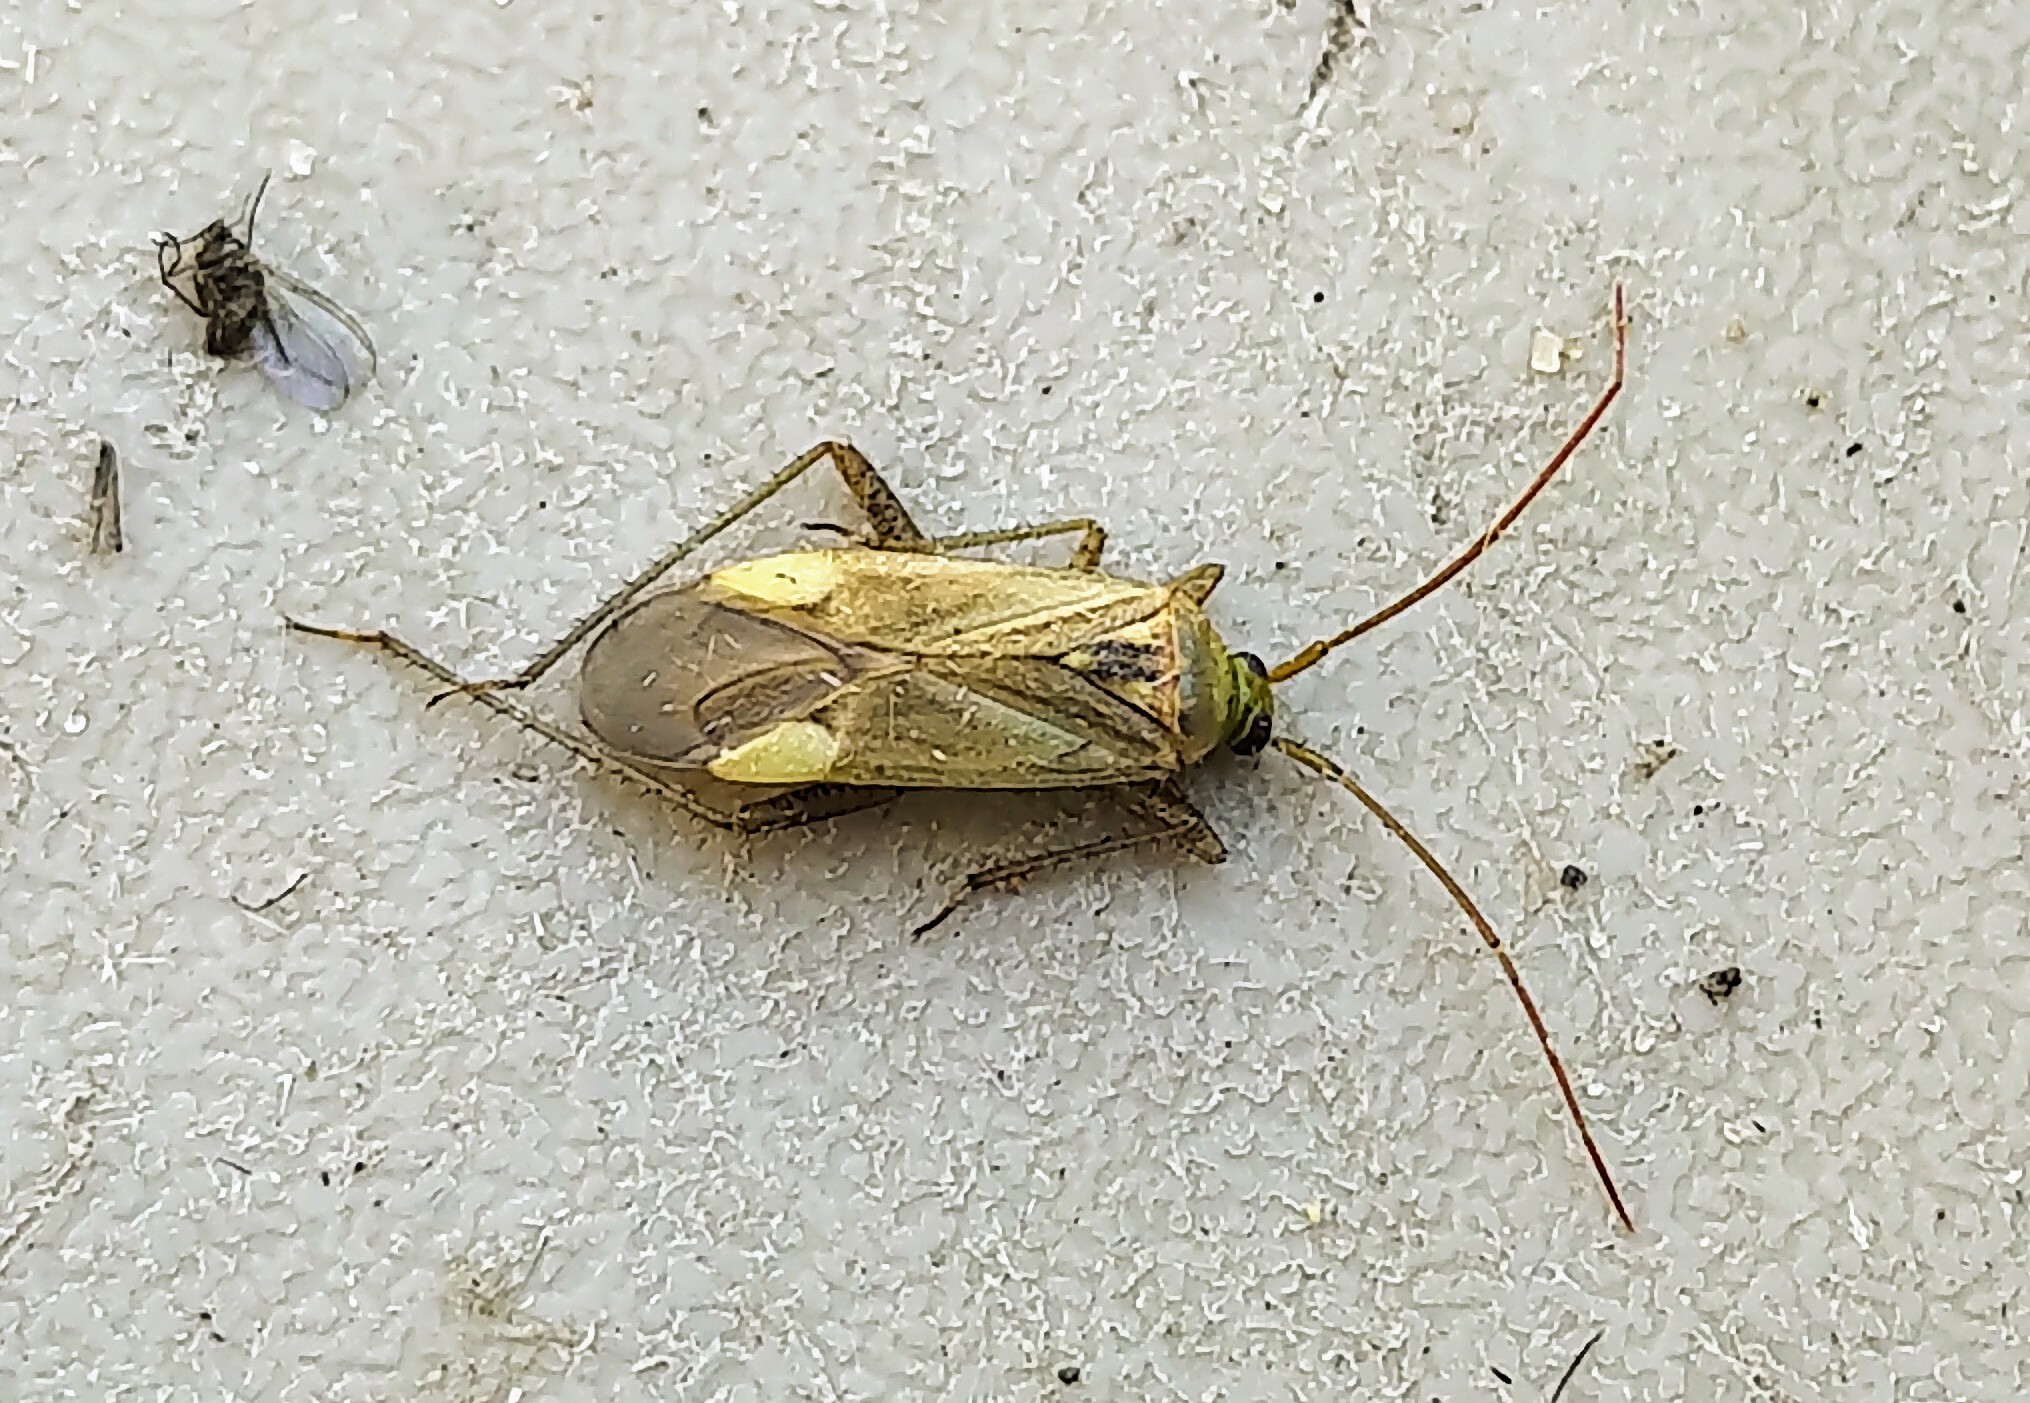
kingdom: Animalia
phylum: Arthropoda
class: Insecta
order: Hemiptera
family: Miridae
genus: Adelphocoris
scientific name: Adelphocoris lineolatus
